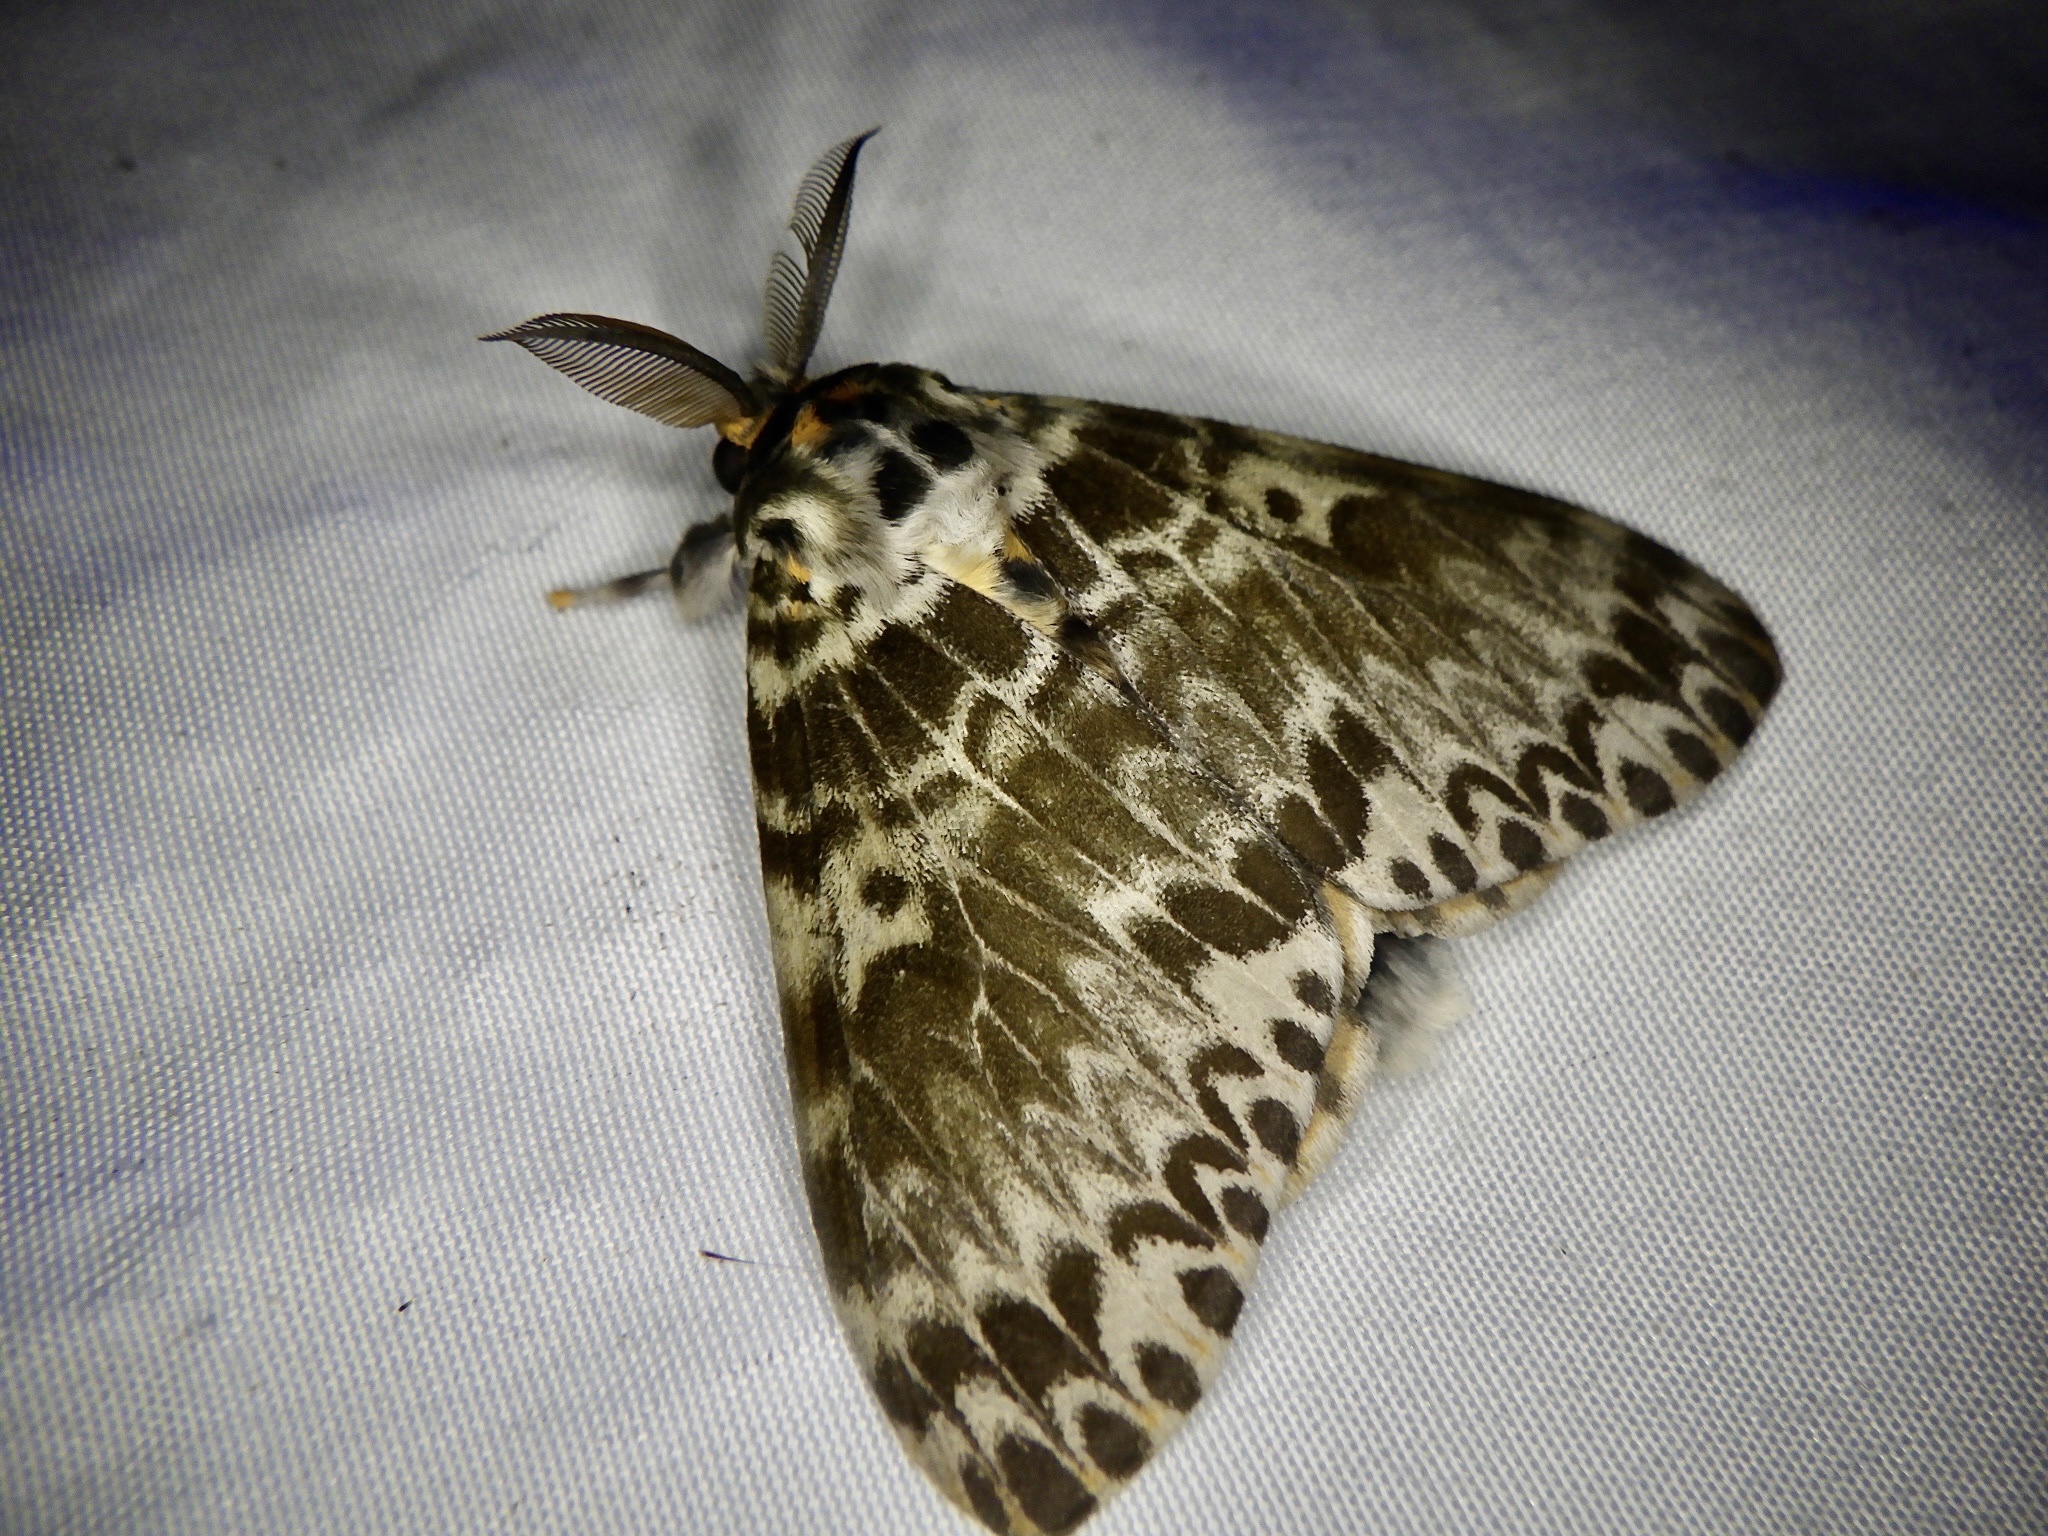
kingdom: Animalia
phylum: Arthropoda
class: Insecta
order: Lepidoptera
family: Erebidae
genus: Lymantria
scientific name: Lymantria mathura
